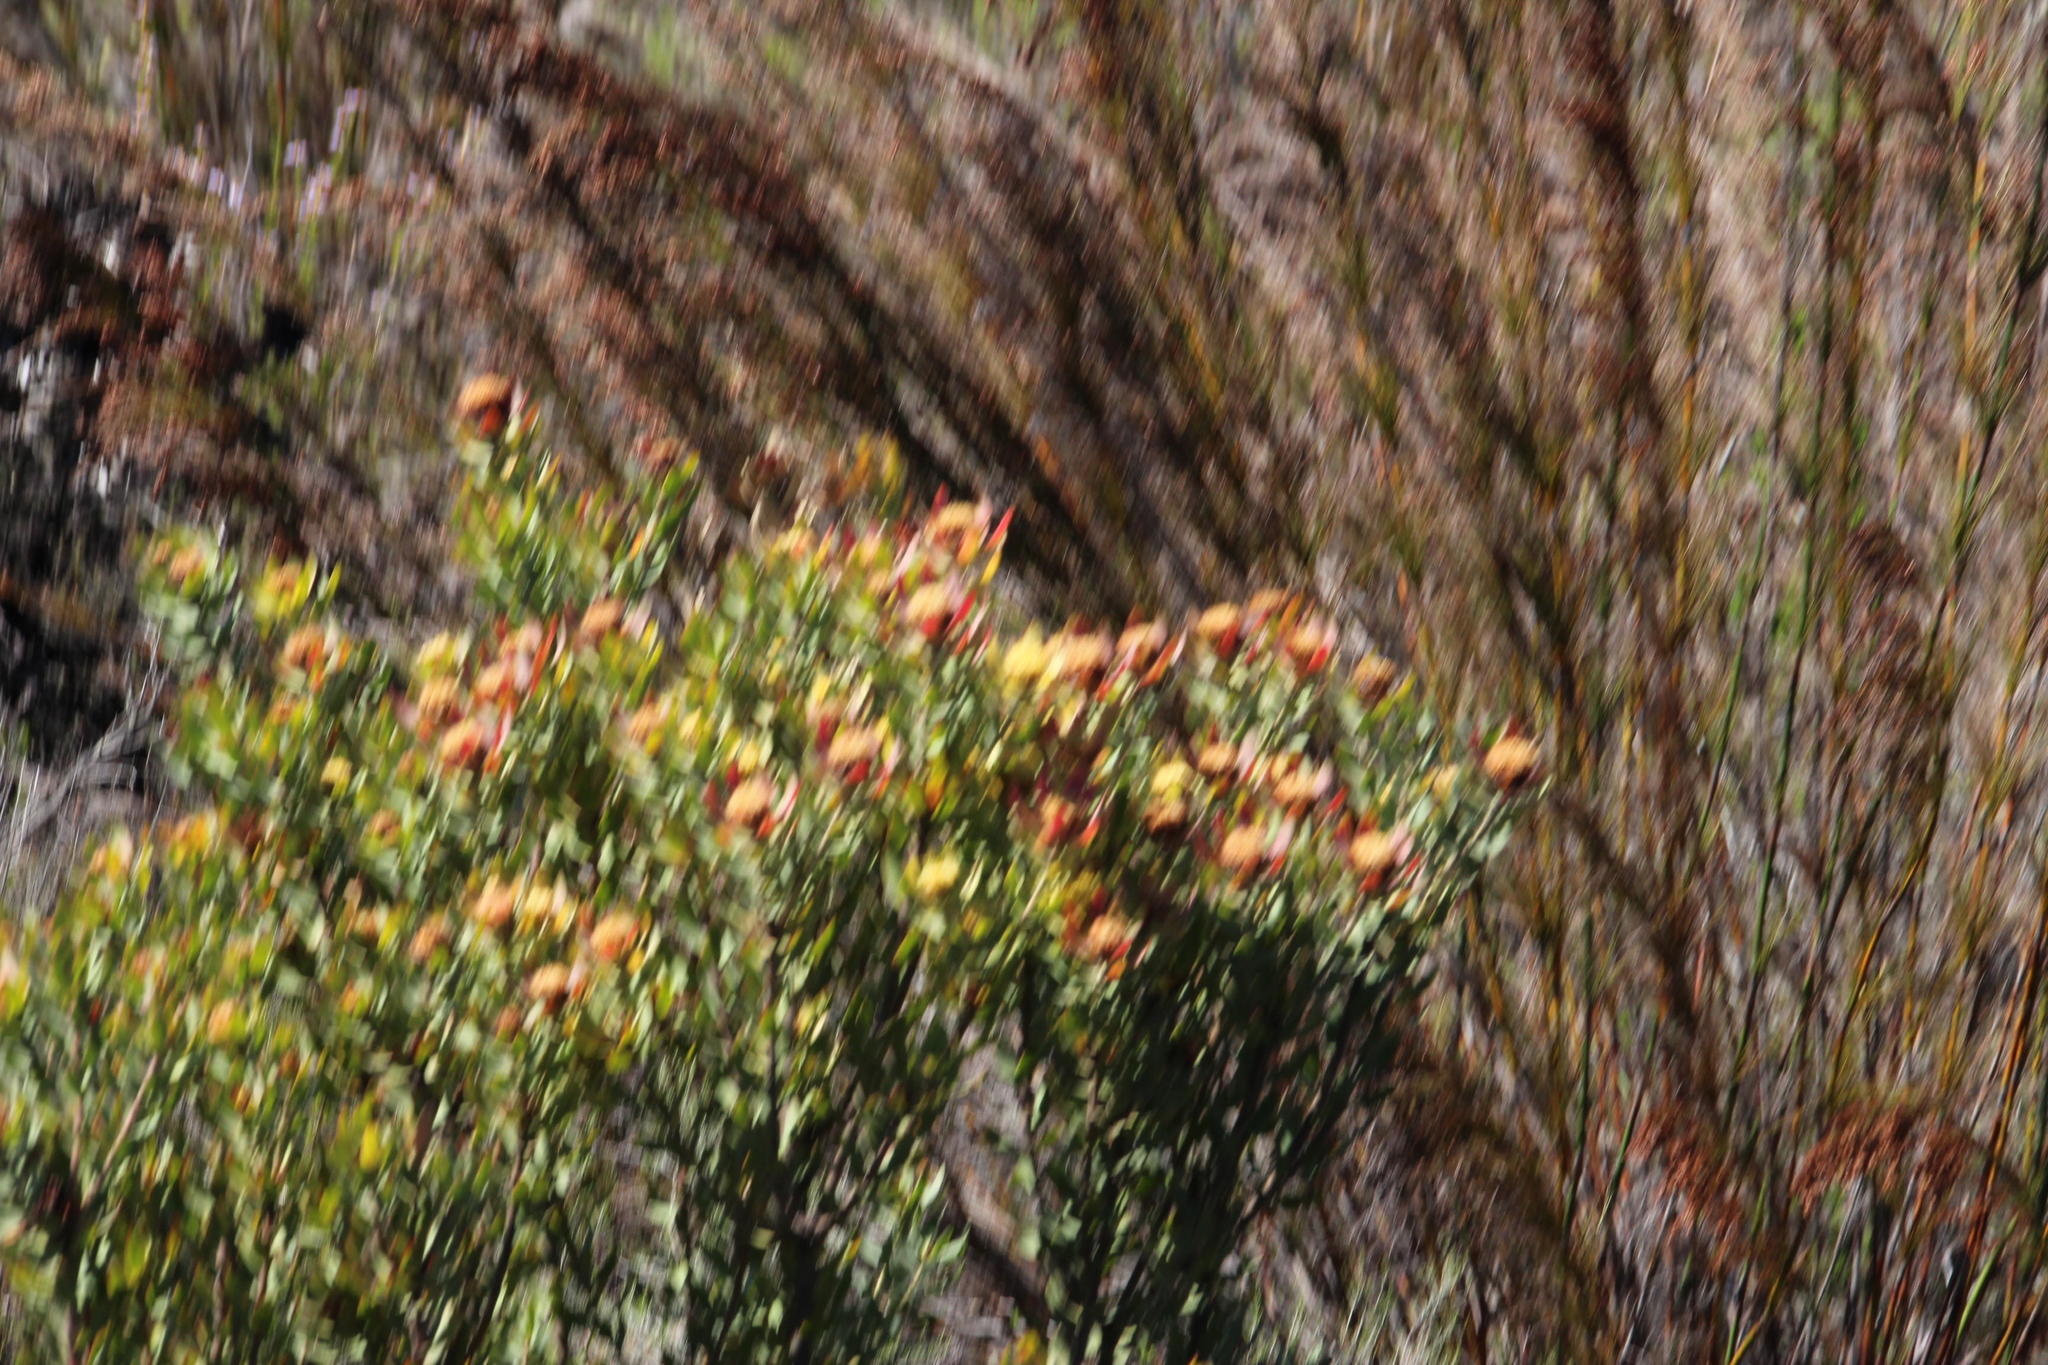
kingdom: Plantae
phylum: Tracheophyta
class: Magnoliopsida
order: Proteales
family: Proteaceae
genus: Leucadendron
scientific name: Leucadendron barkerae
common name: Swartberg conebush
